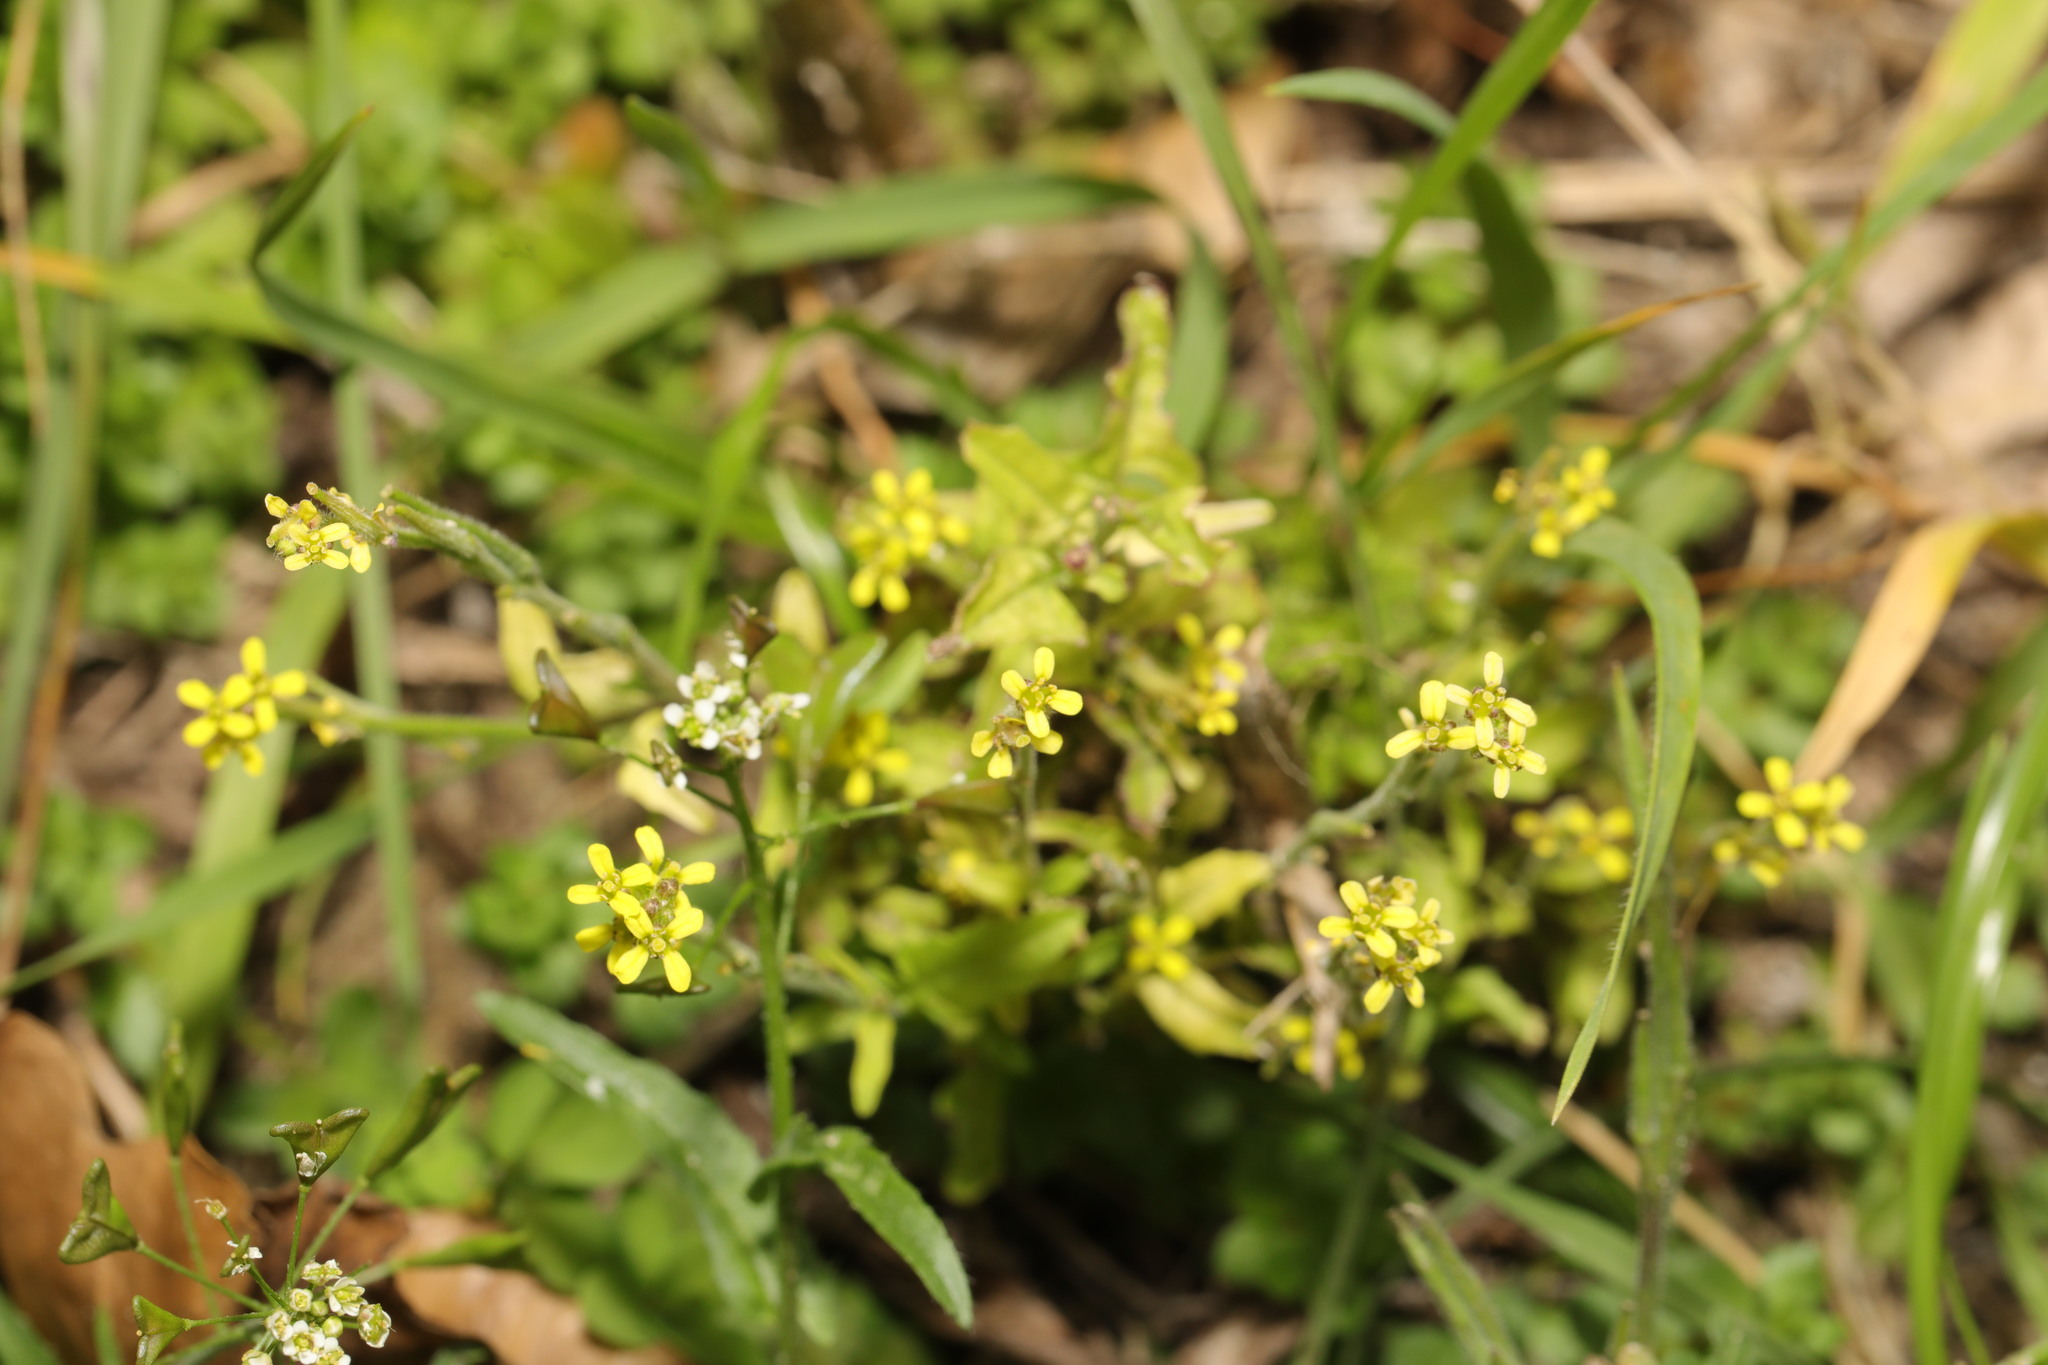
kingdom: Plantae
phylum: Tracheophyta
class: Magnoliopsida
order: Brassicales
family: Brassicaceae
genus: Sisymbrium
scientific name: Sisymbrium officinale
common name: Hedge mustard
